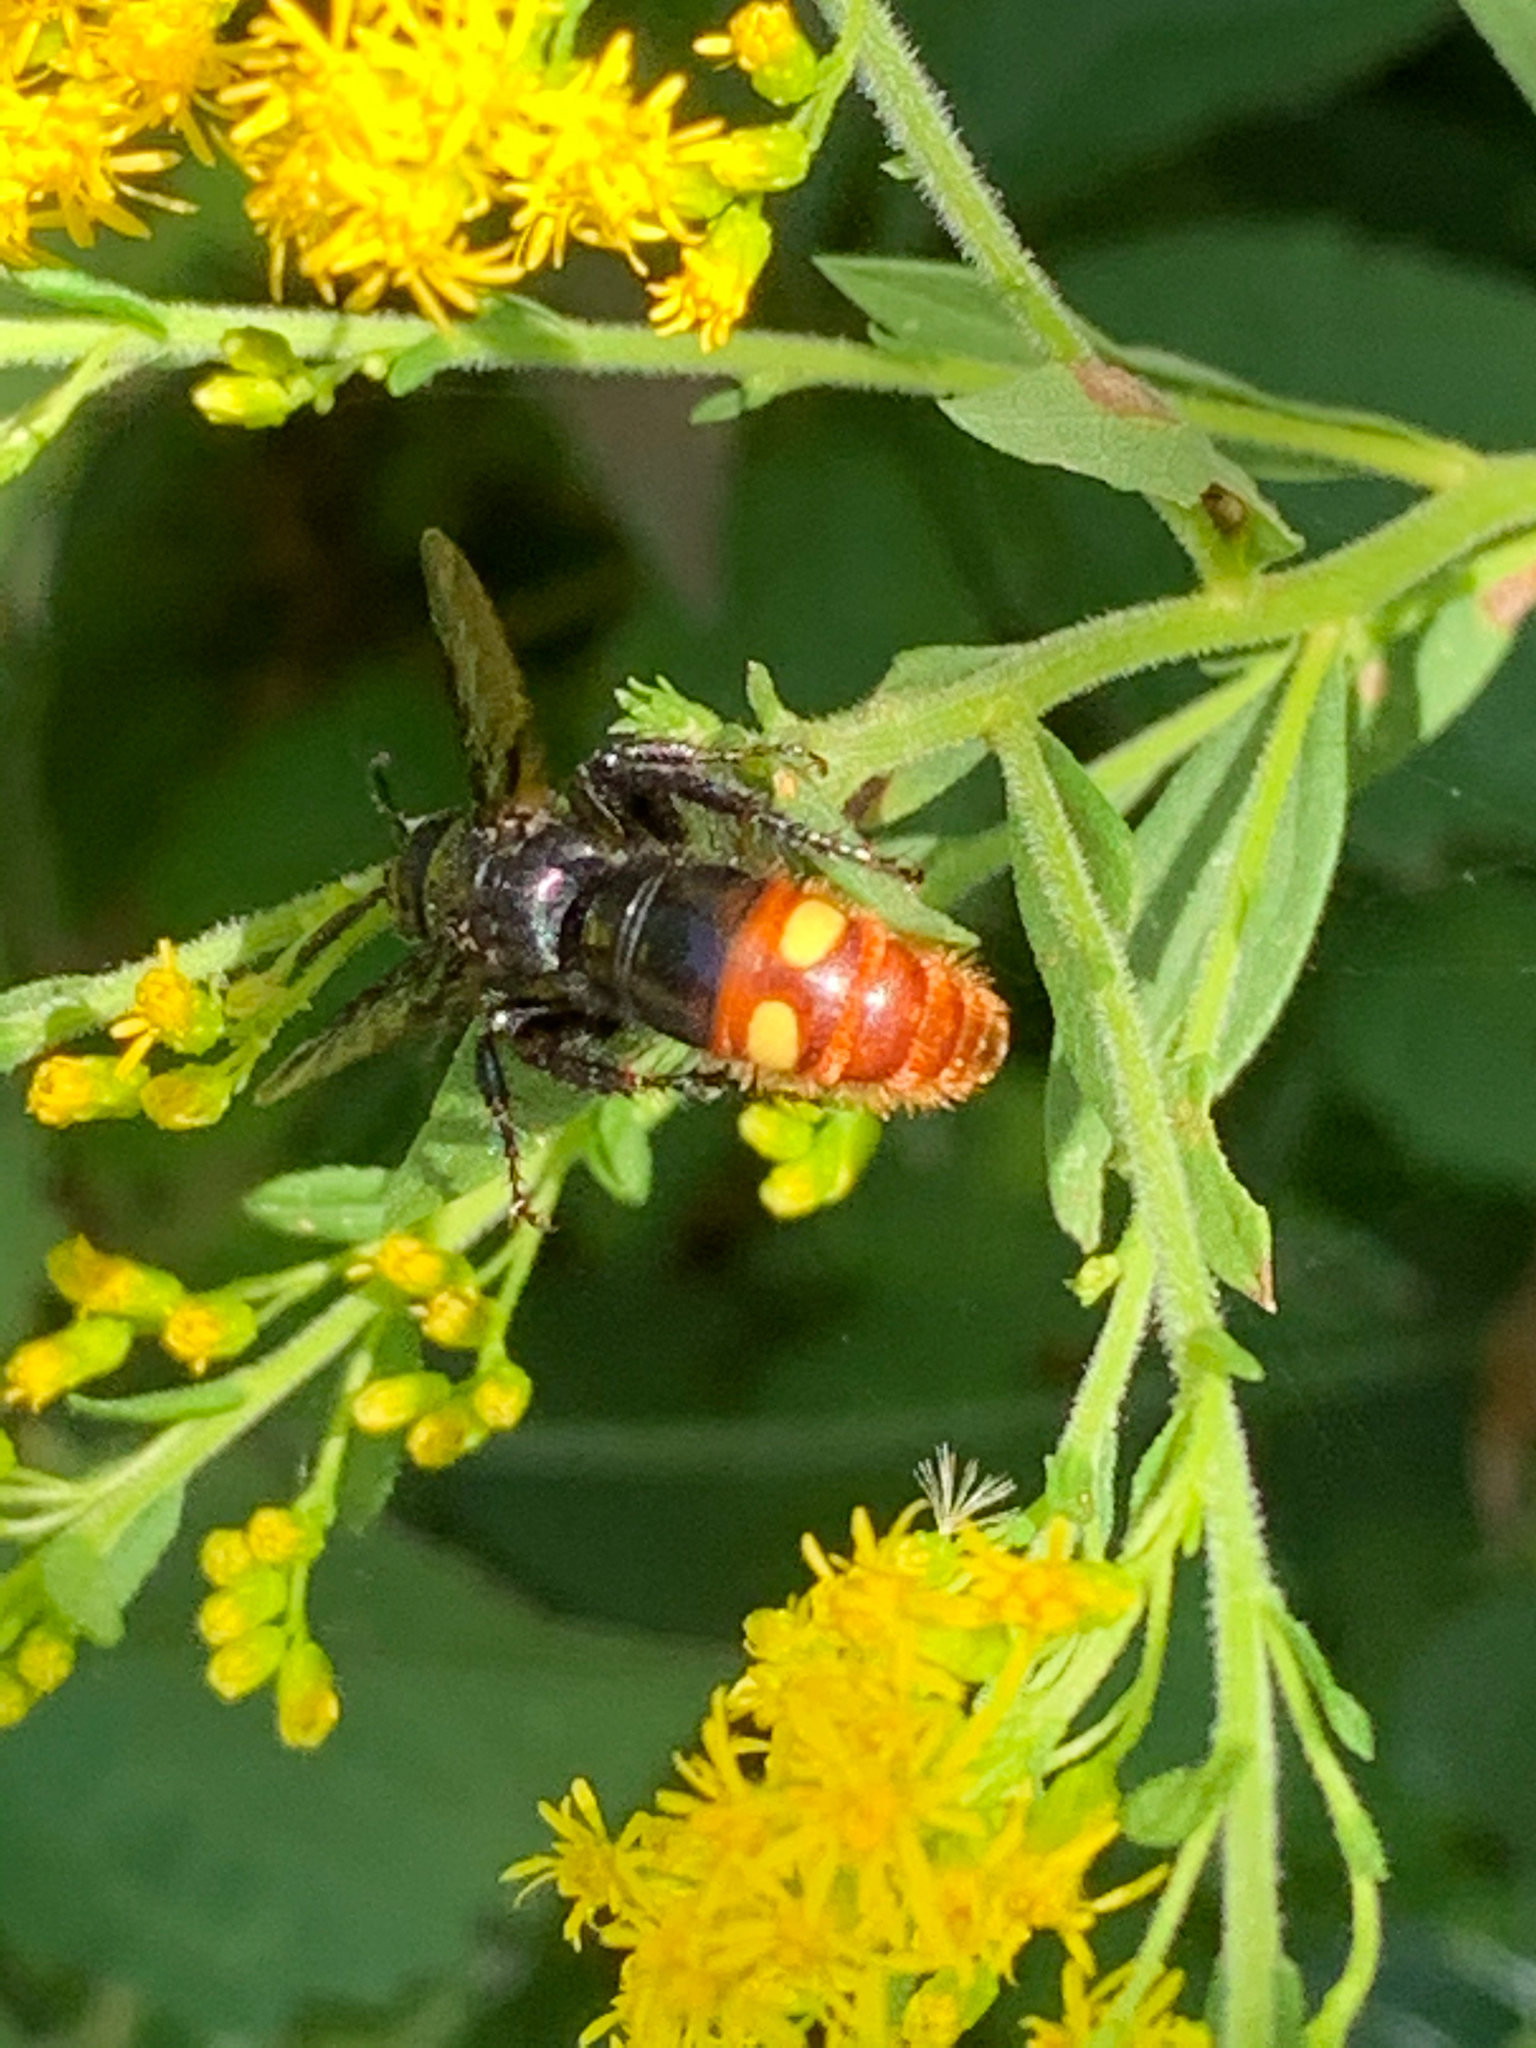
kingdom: Animalia
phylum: Arthropoda
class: Insecta
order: Hymenoptera
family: Scoliidae
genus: Scolia
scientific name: Scolia dubia
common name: Blue-winged scoliid wasp
